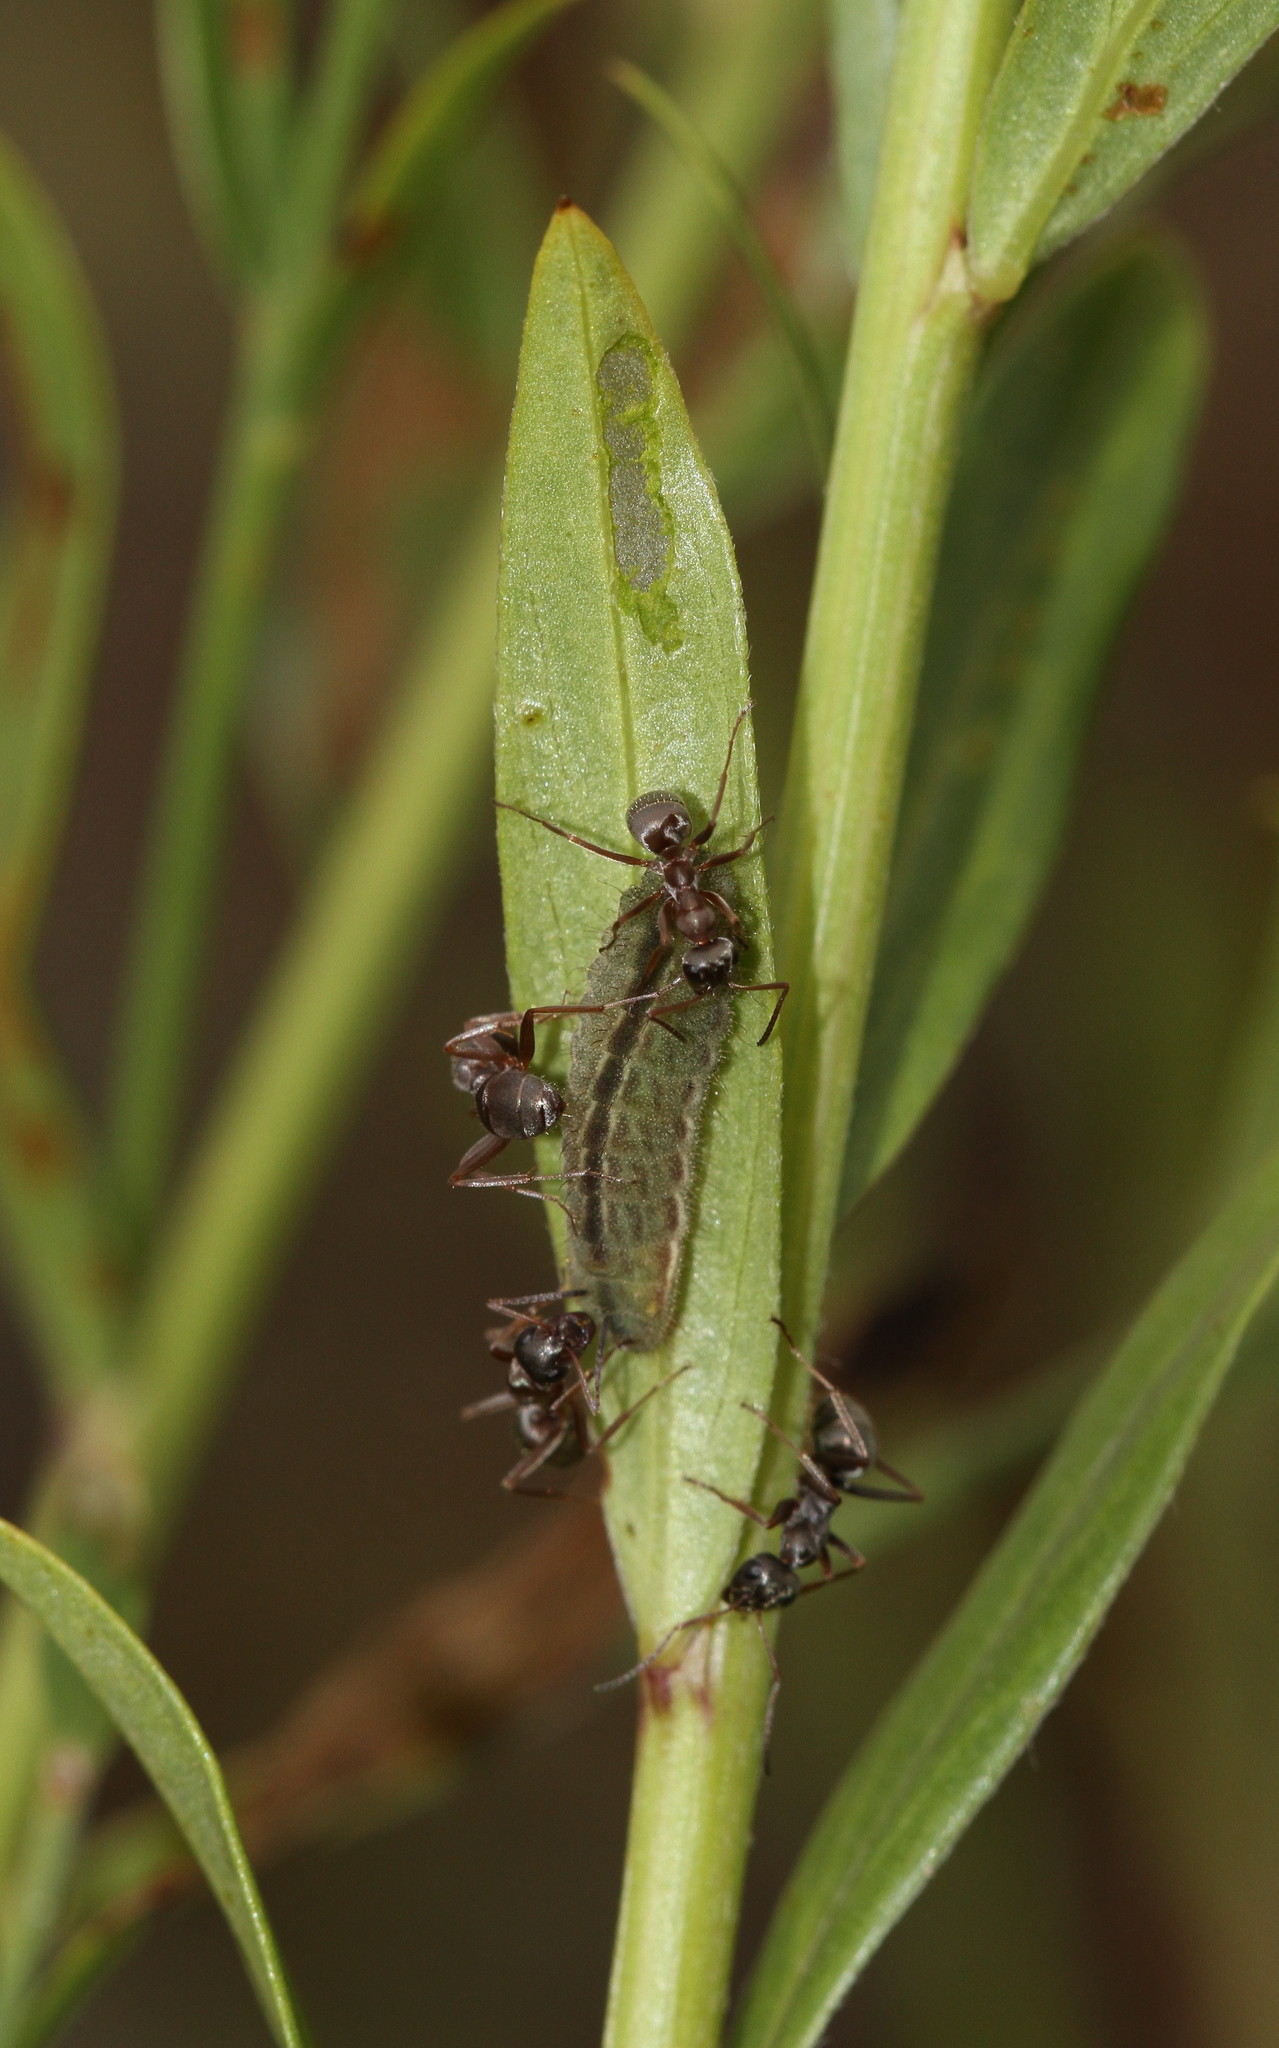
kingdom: Animalia
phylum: Arthropoda
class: Insecta
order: Lepidoptera
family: Lycaenidae
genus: Lycaeides
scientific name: Lycaeides idas
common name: Northern blue
